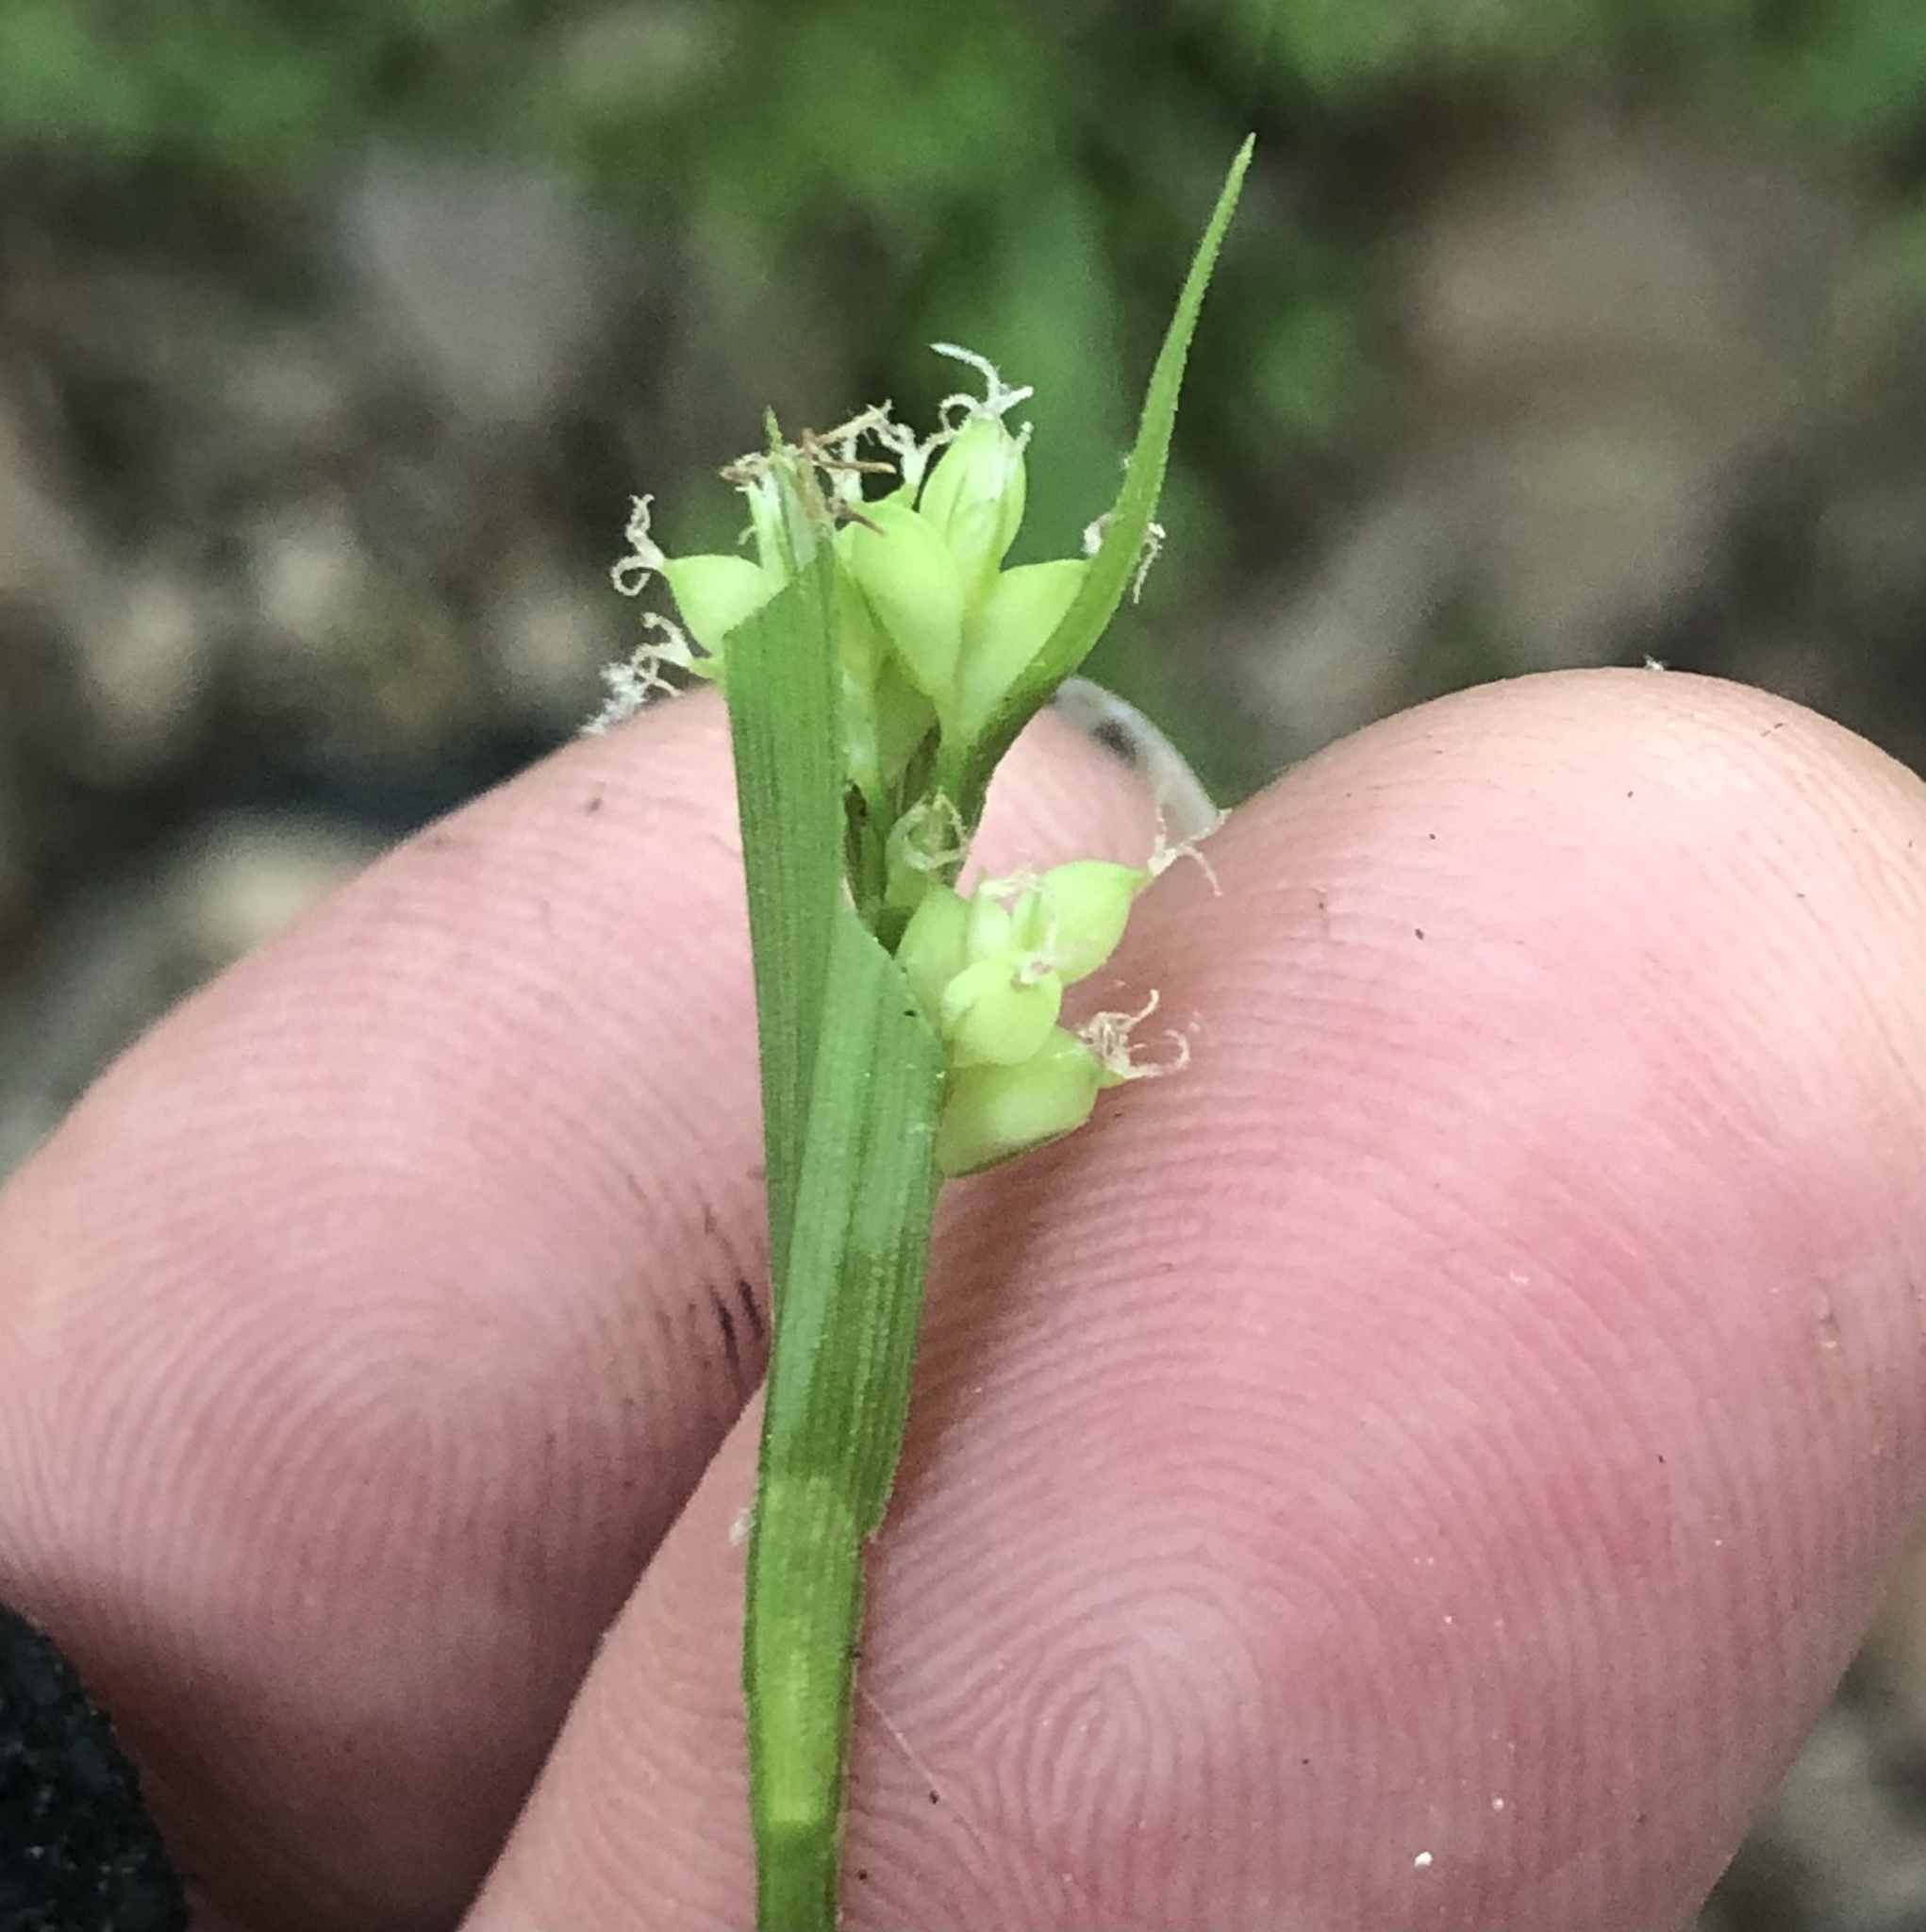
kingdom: Plantae
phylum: Tracheophyta
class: Liliopsida
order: Poales
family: Cyperaceae
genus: Carex
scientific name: Carex blanda
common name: Bland sedge
